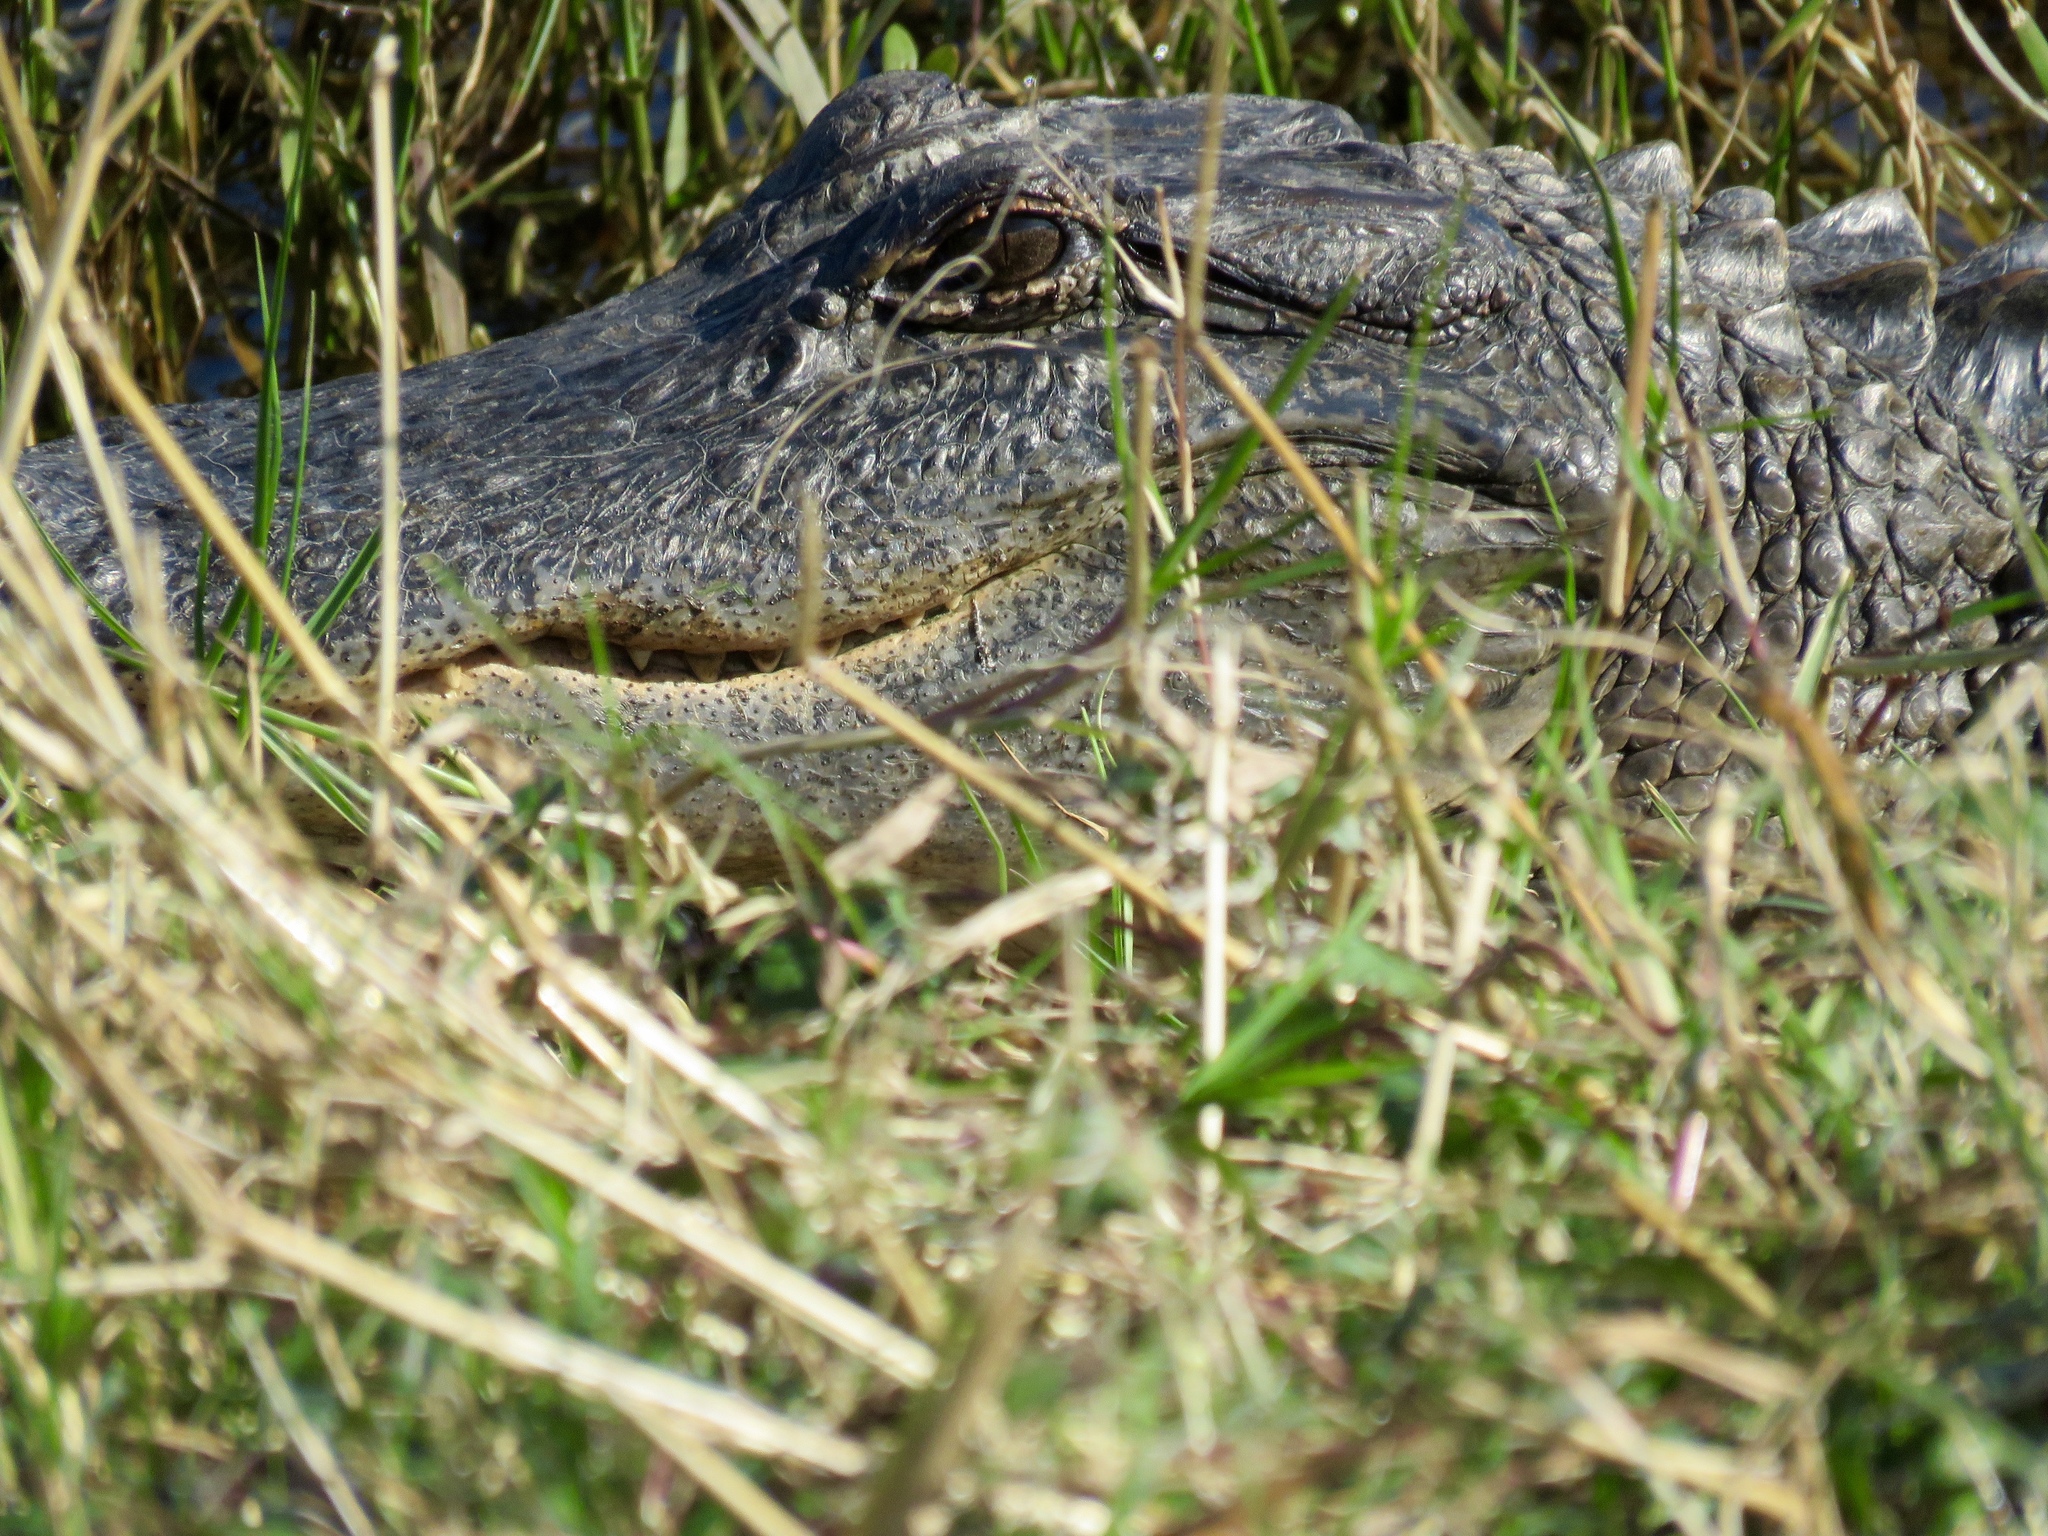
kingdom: Animalia
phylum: Chordata
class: Crocodylia
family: Alligatoridae
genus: Alligator
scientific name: Alligator mississippiensis
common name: American alligator
